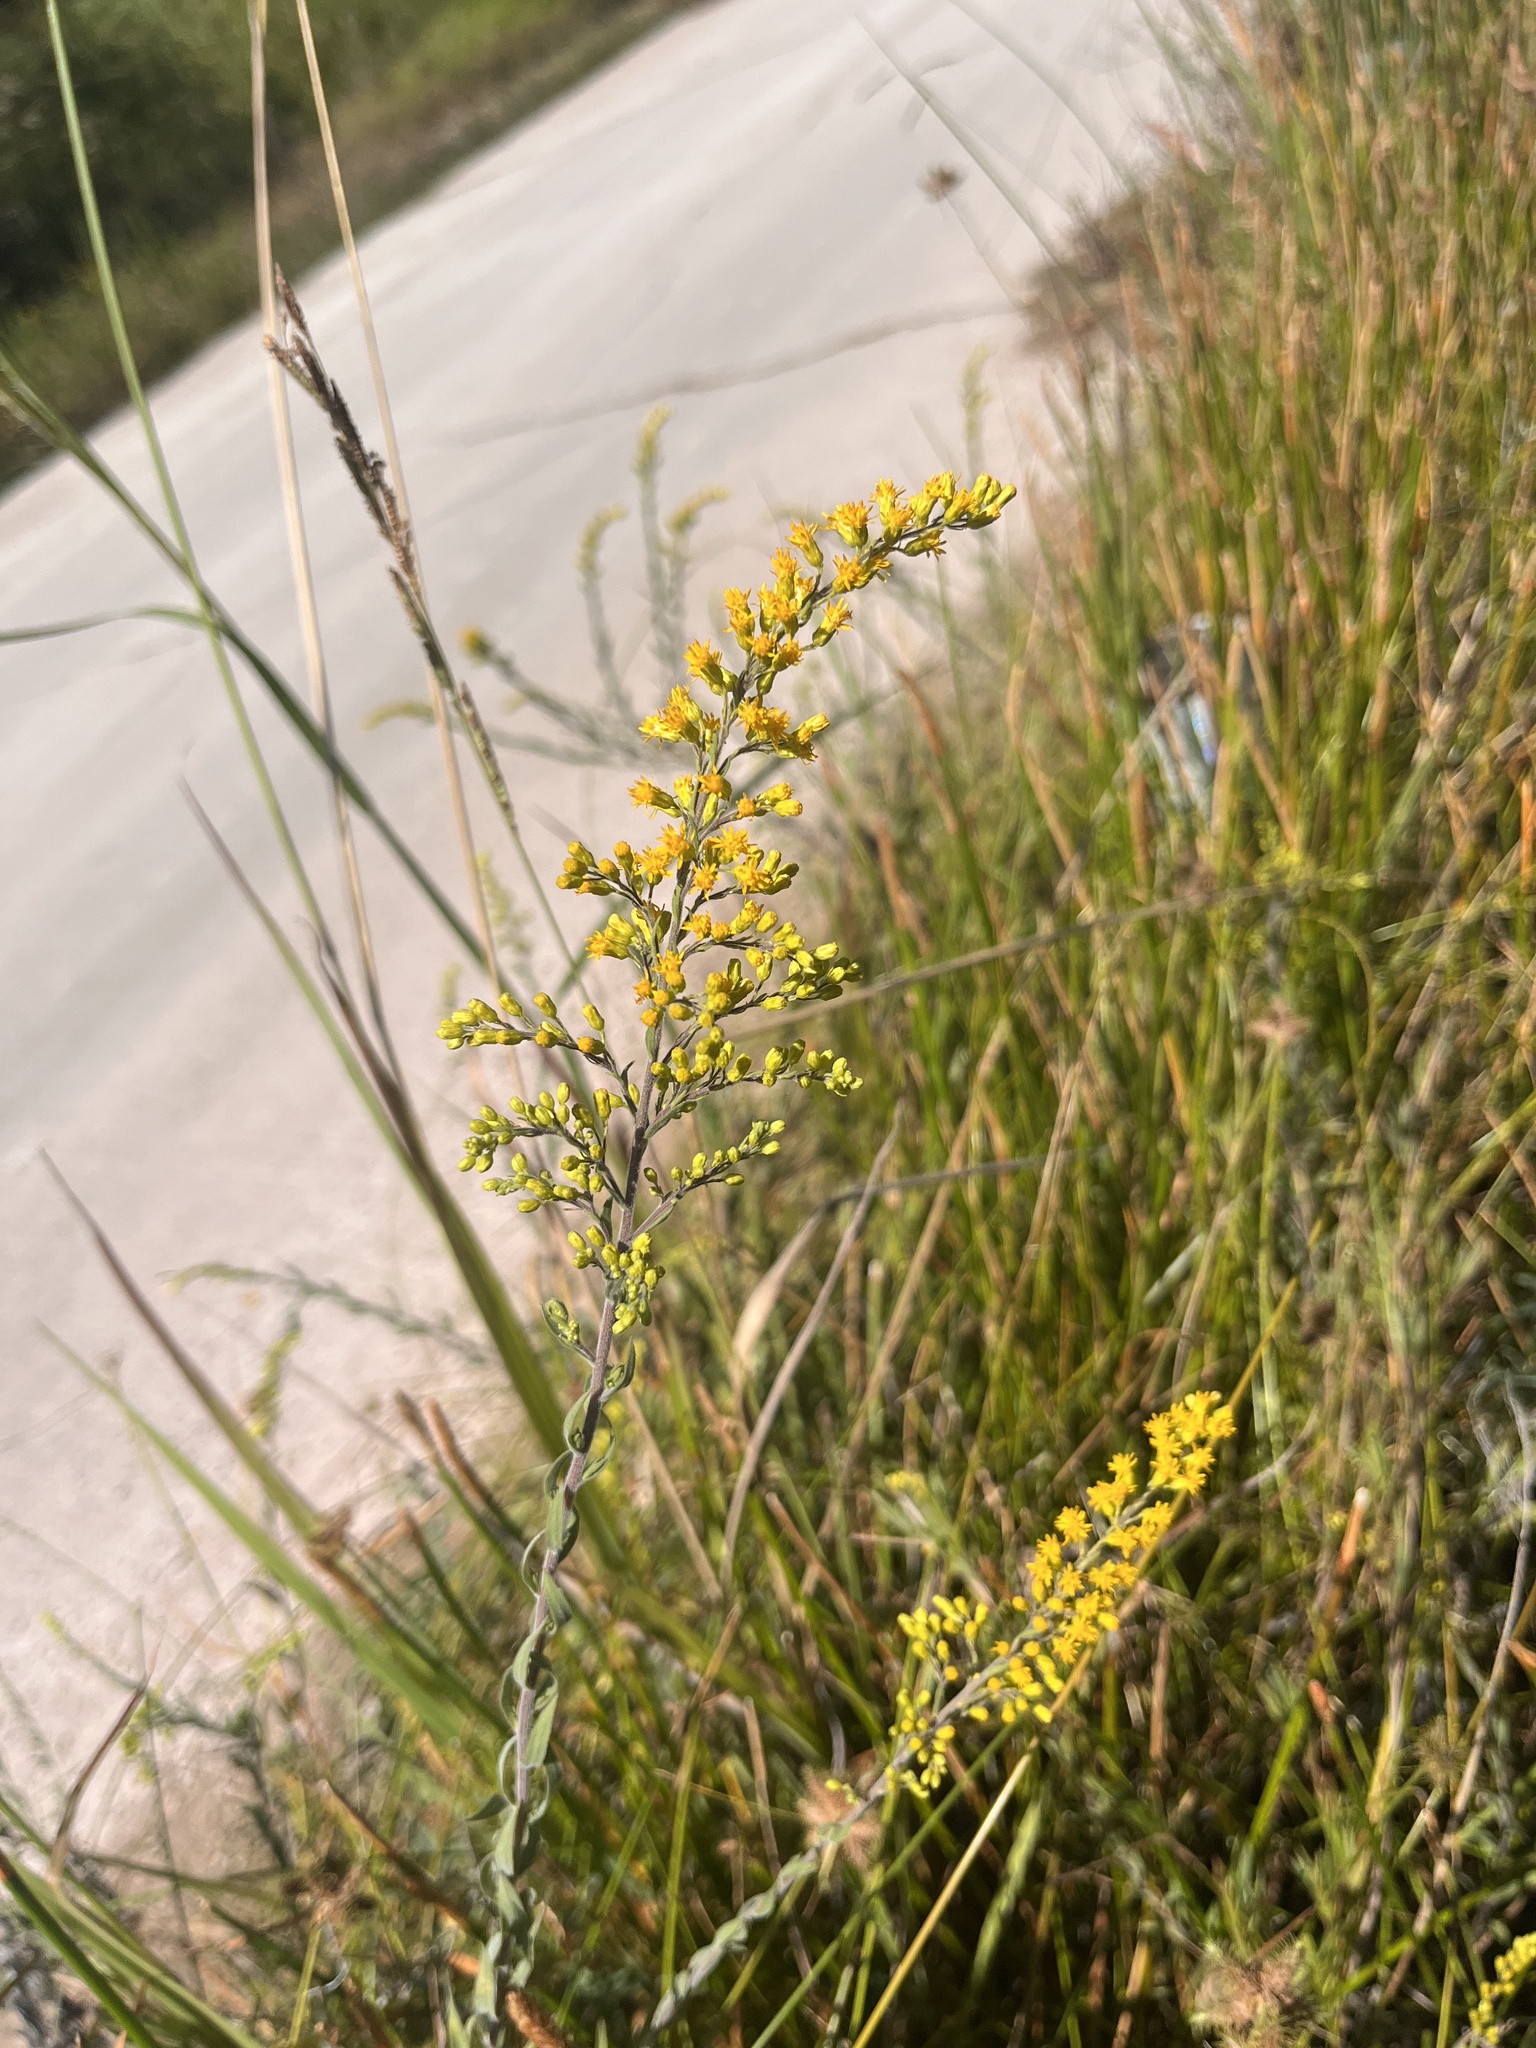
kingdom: Plantae
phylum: Tracheophyta
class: Magnoliopsida
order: Asterales
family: Asteraceae
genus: Solidago
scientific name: Solidago nemoralis
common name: Grey goldenrod
